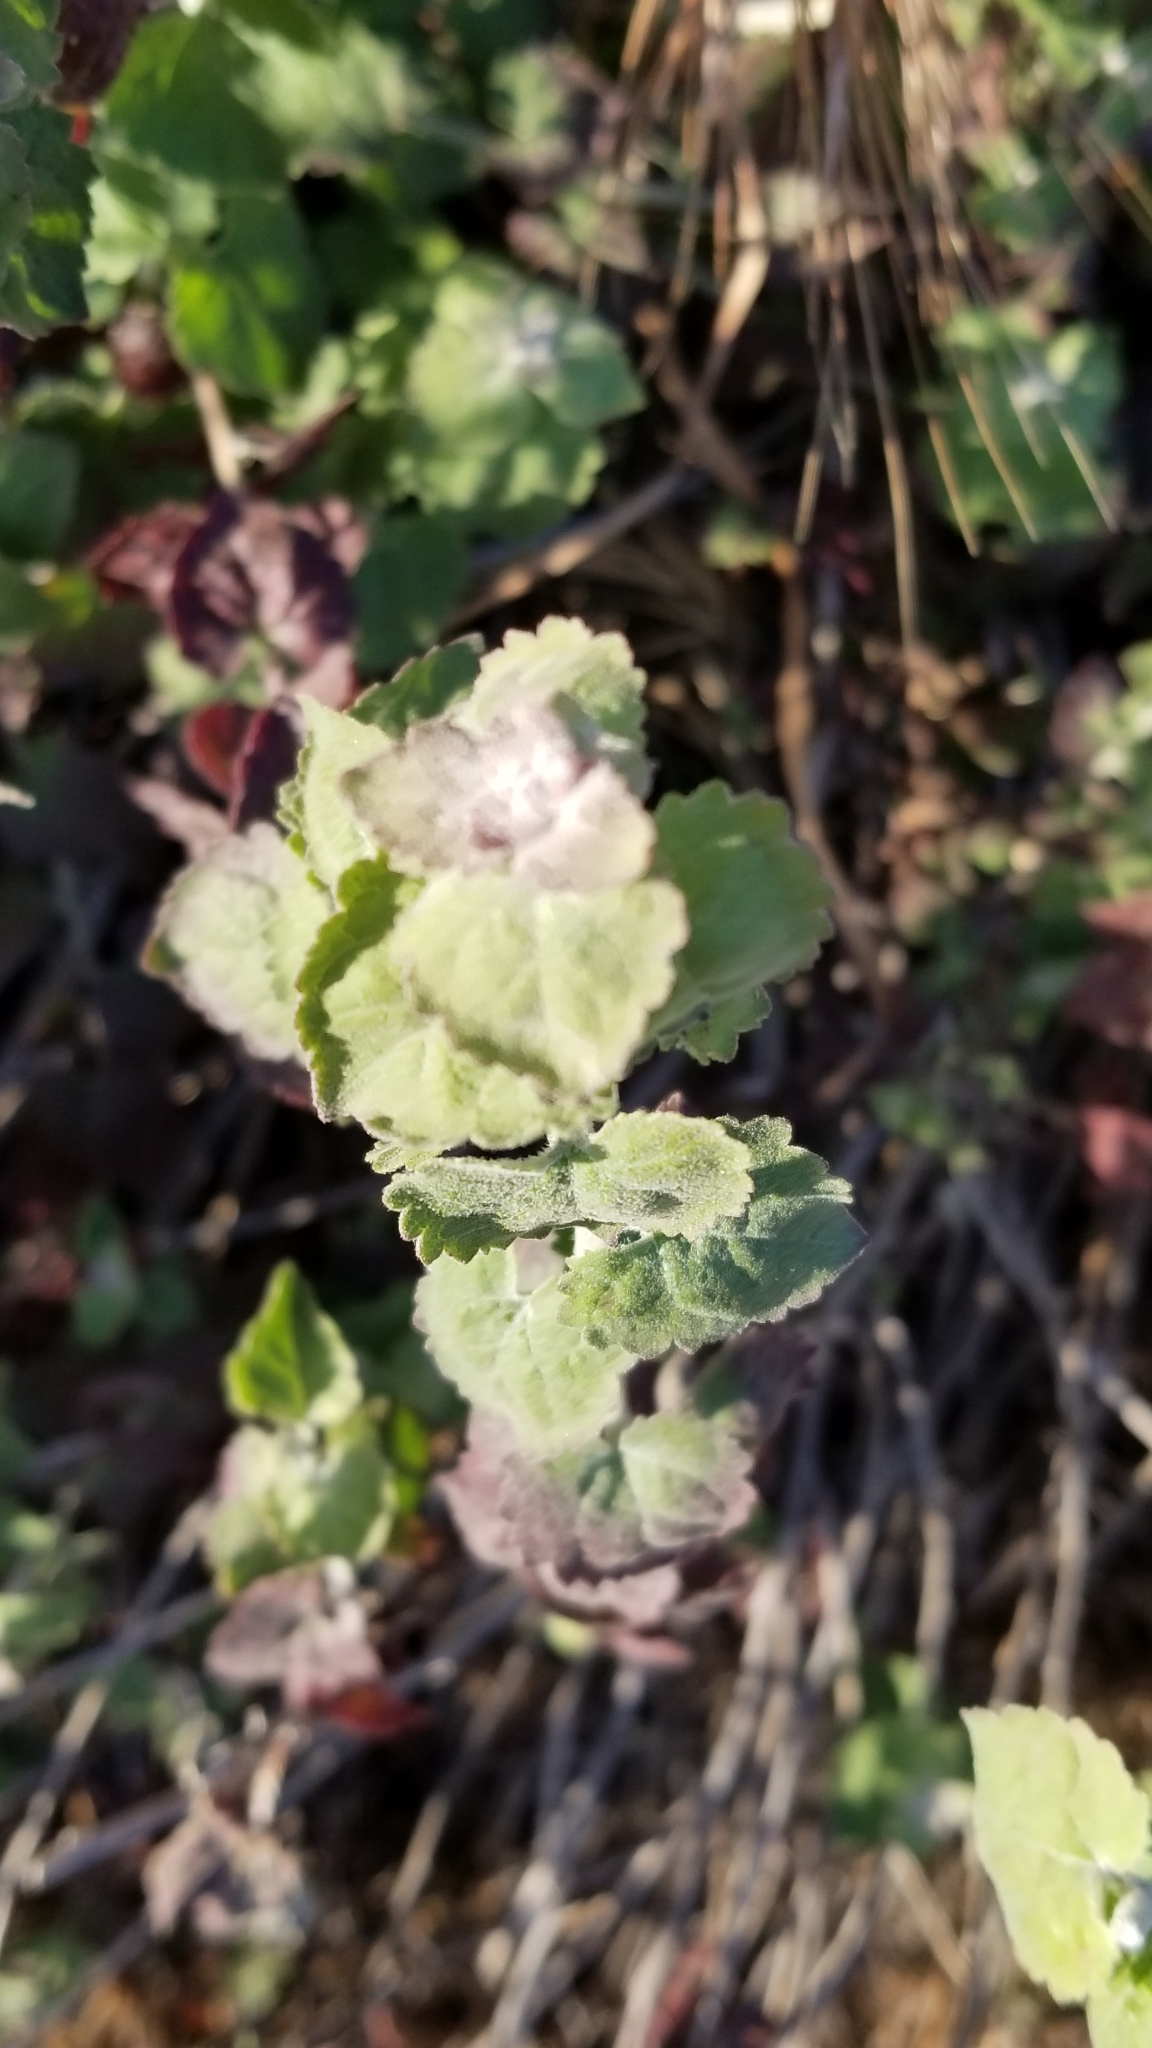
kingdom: Plantae
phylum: Tracheophyta
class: Magnoliopsida
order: Asterales
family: Asteraceae
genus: Brickellia
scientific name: Brickellia californica
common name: California brickellbush
